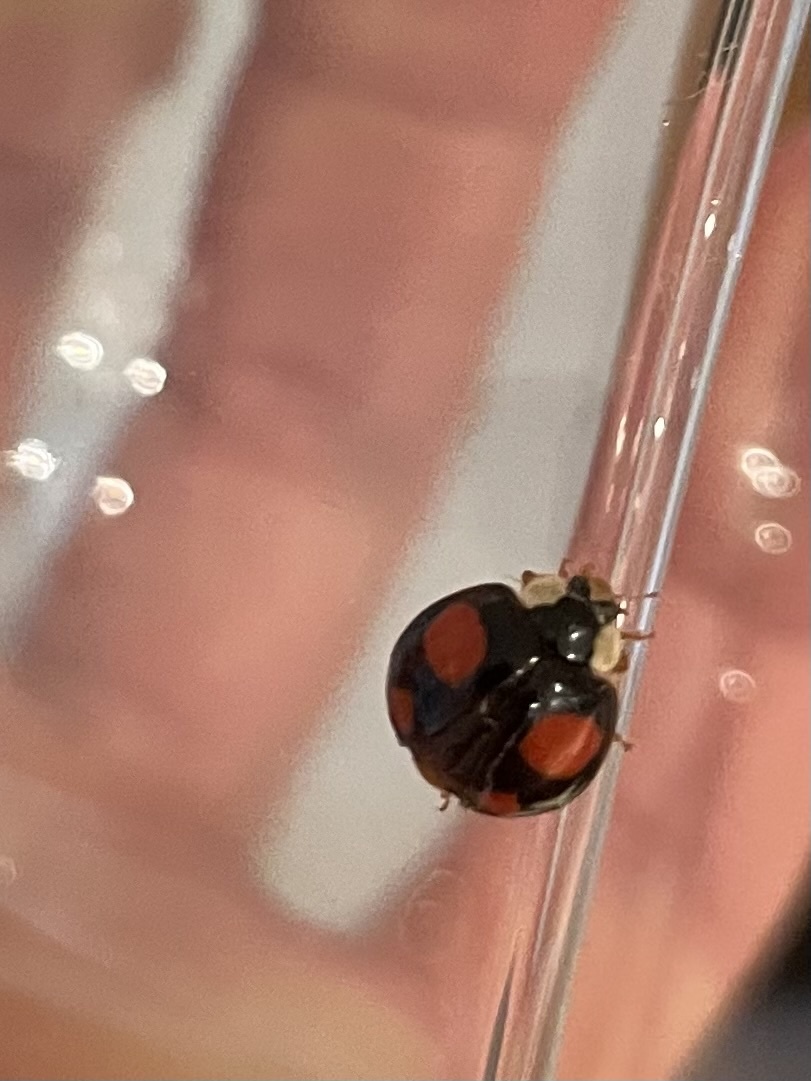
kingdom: Animalia
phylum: Arthropoda
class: Insecta
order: Coleoptera
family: Coccinellidae
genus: Harmonia
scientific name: Harmonia axyridis
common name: Harlequin ladybird
